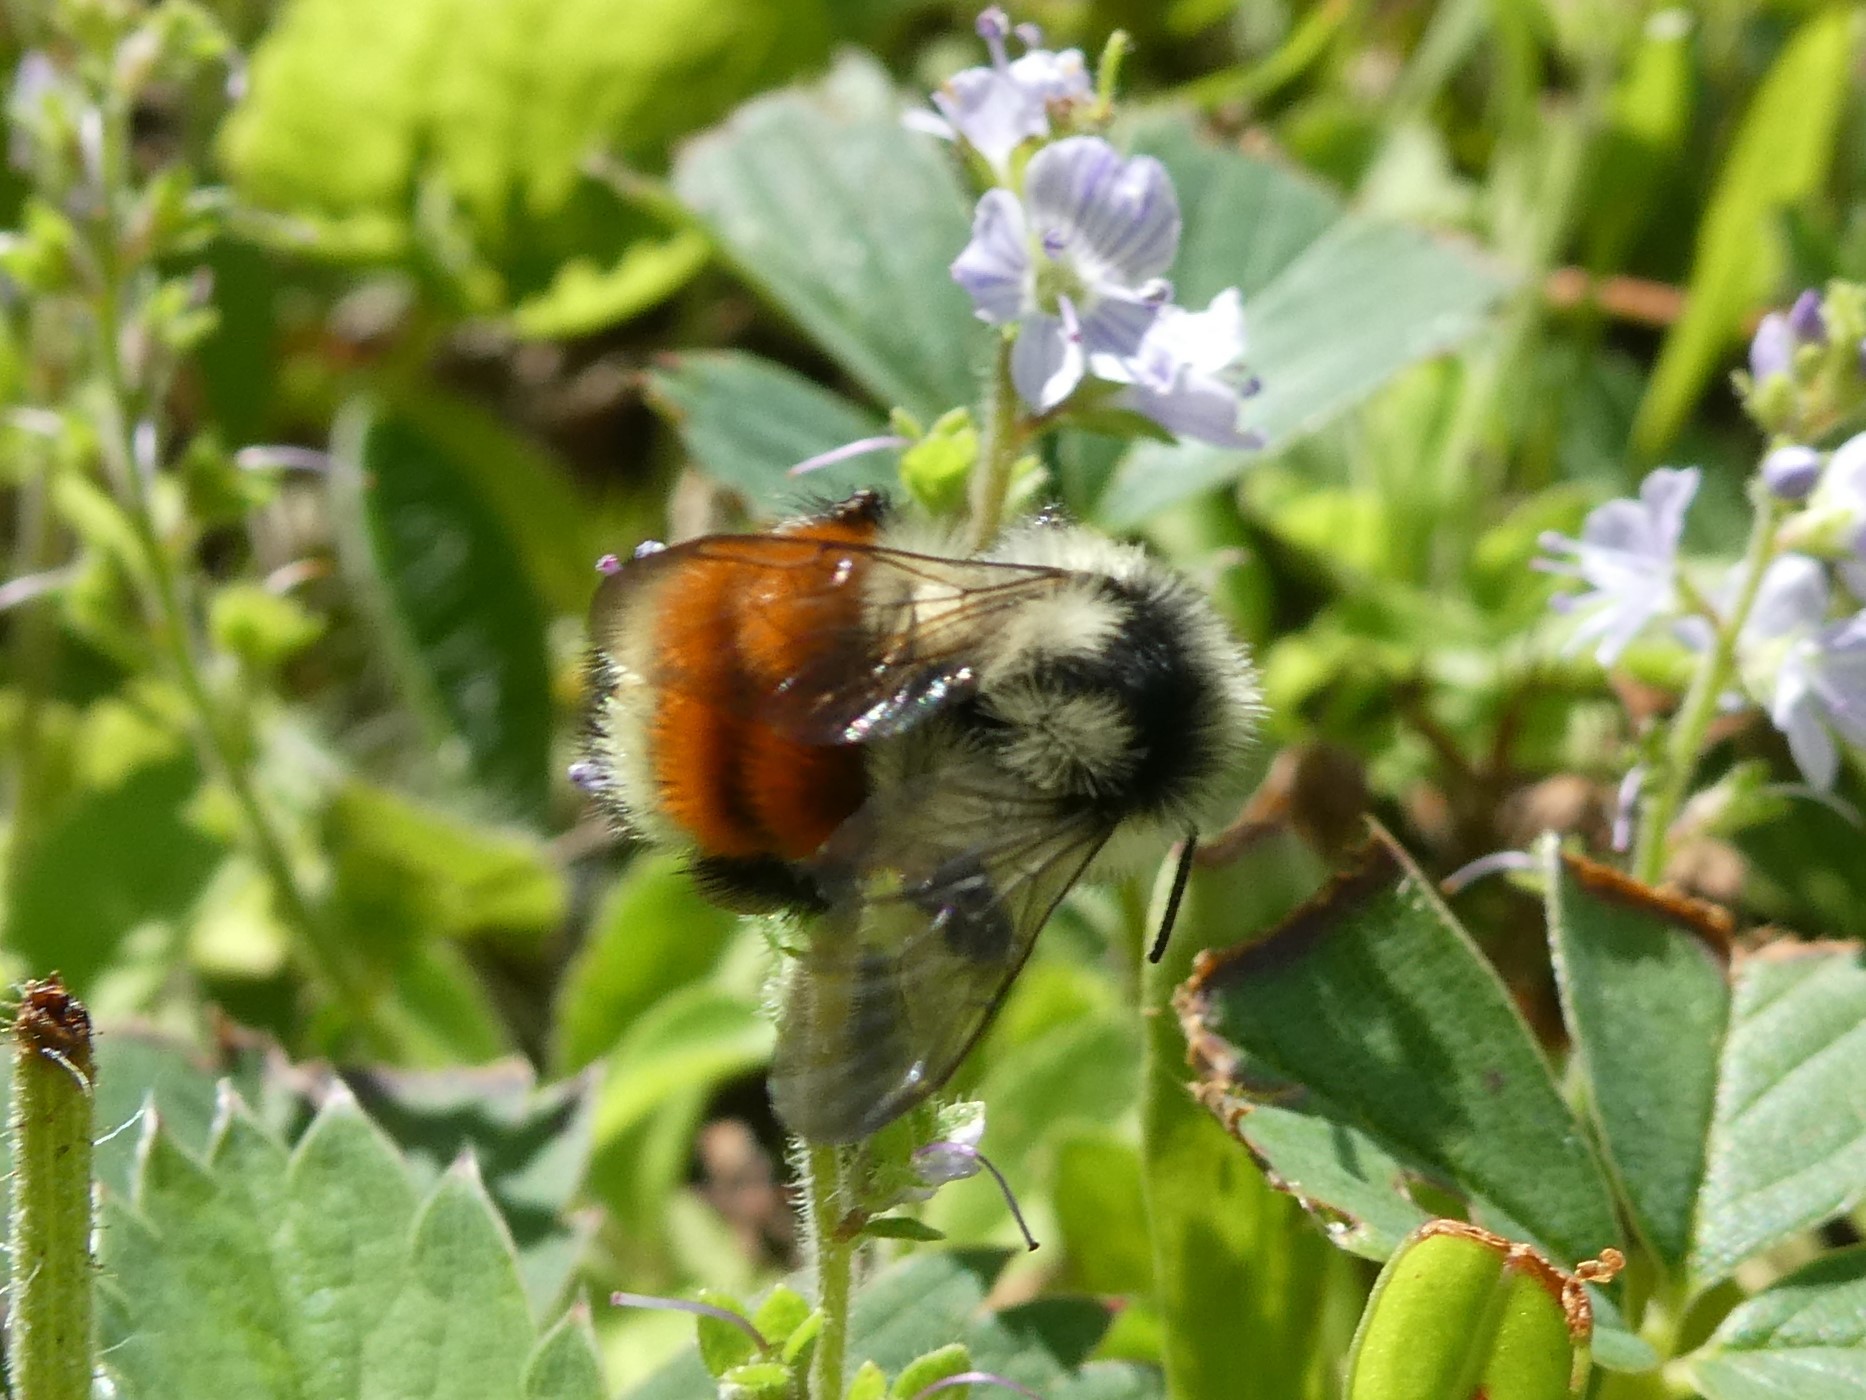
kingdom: Animalia
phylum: Arthropoda
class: Insecta
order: Hymenoptera
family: Apidae
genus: Bombus
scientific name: Bombus ternarius
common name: Tri-colored bumble bee
